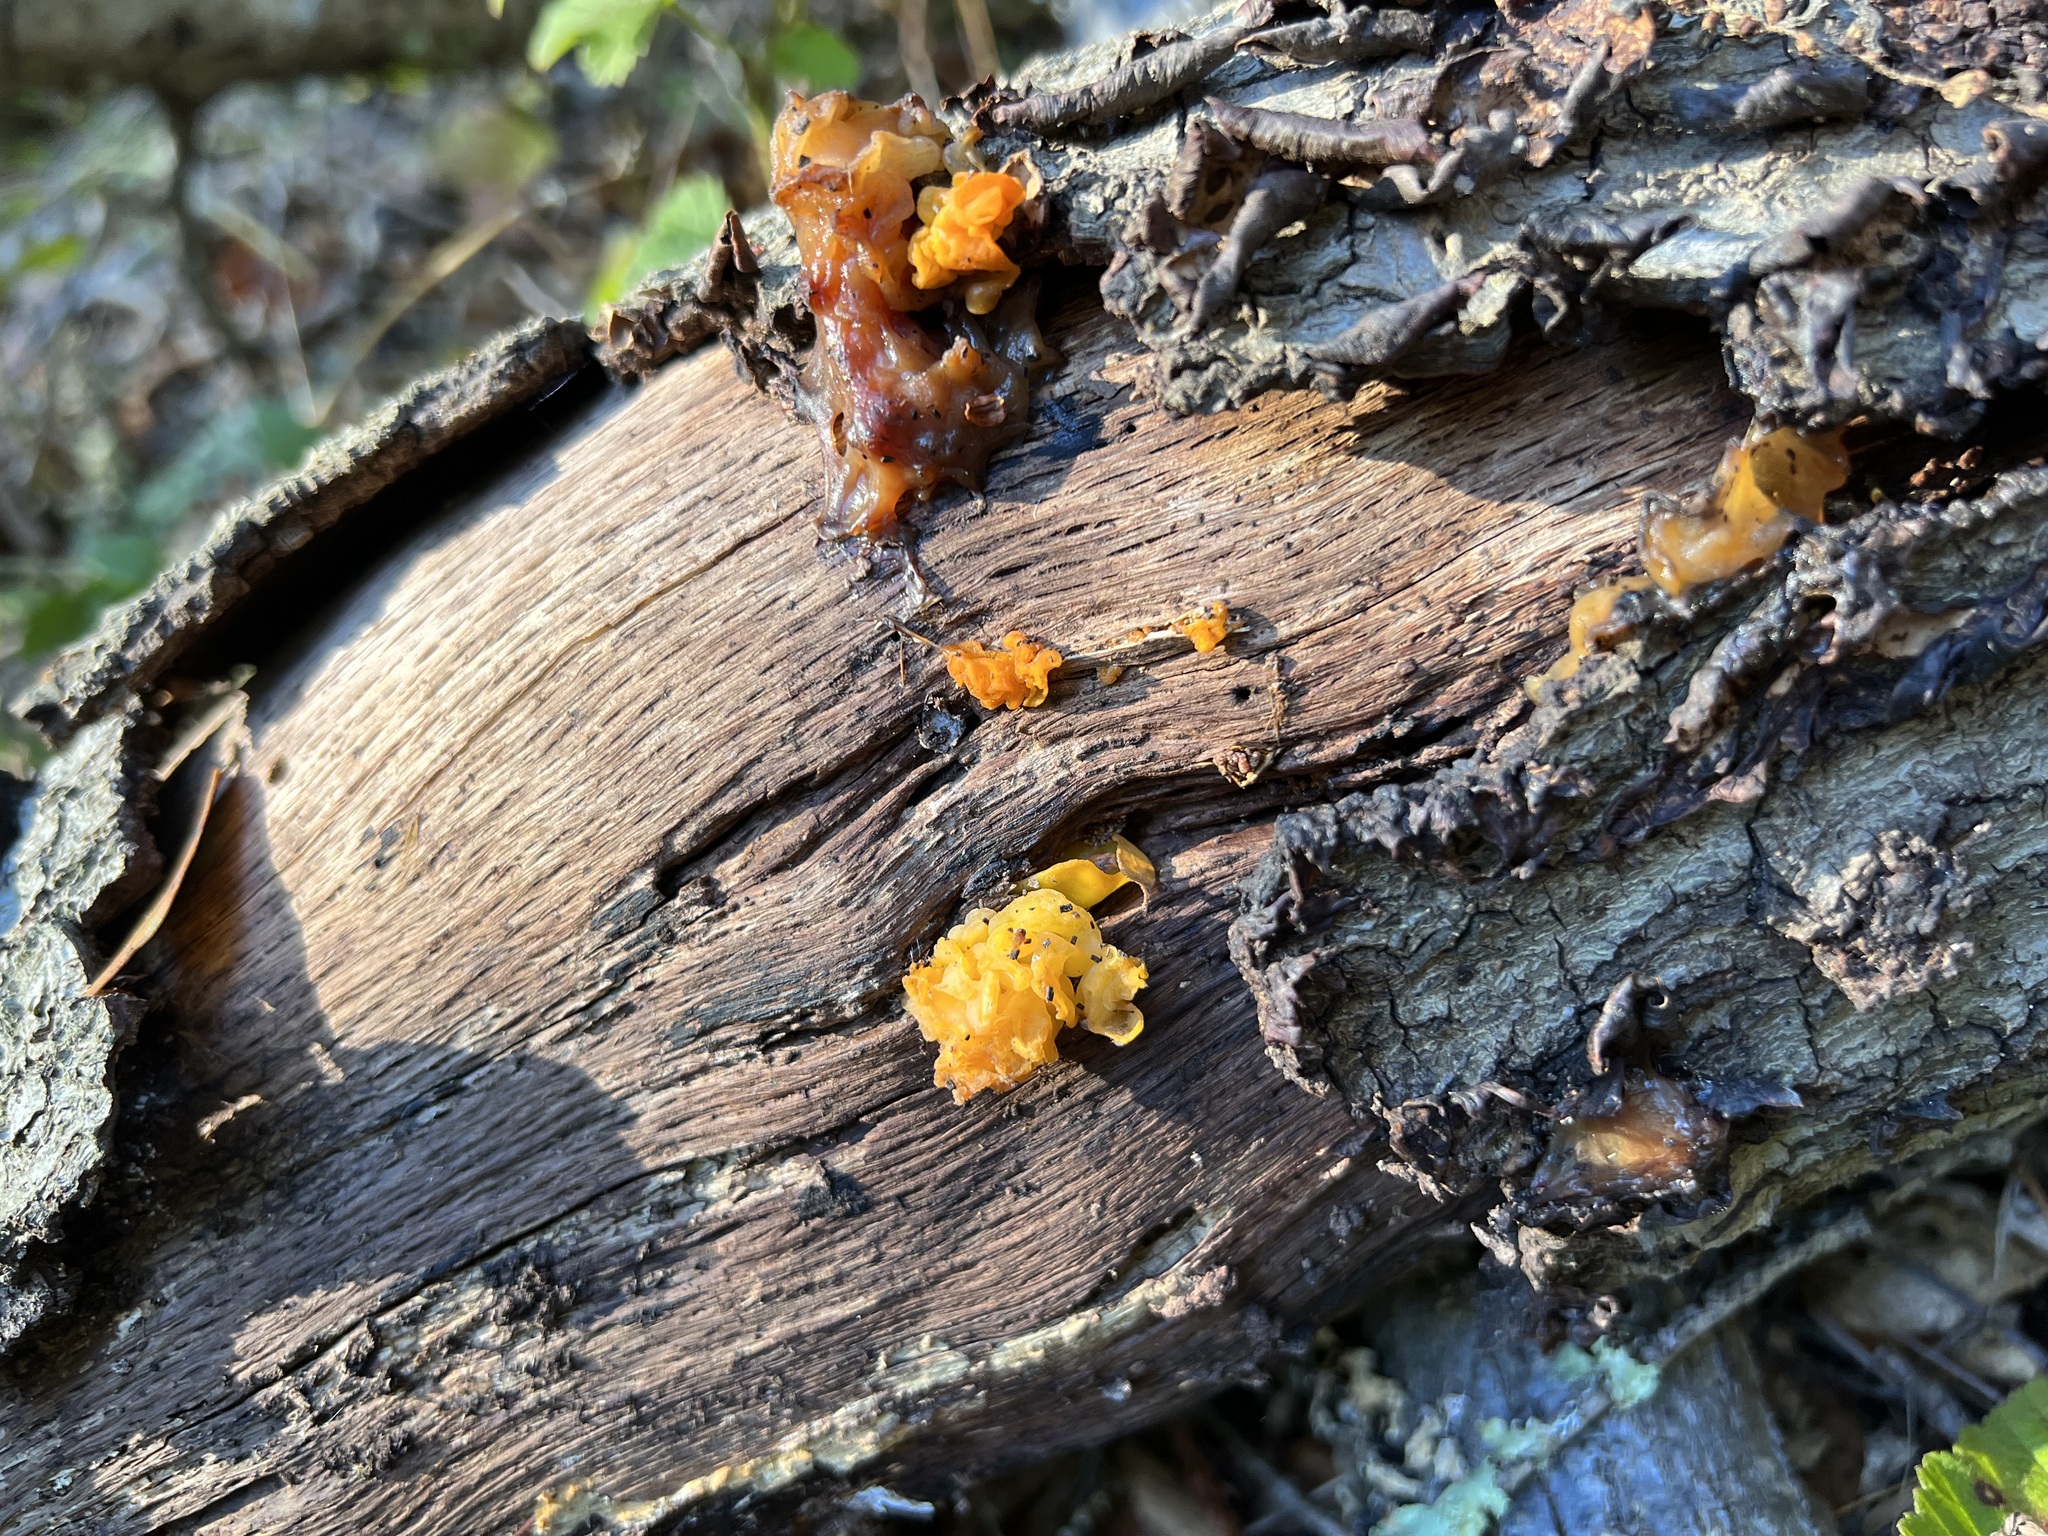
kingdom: Fungi
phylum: Basidiomycota
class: Dacrymycetes
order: Dacrymycetales
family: Dacrymycetaceae
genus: Dacrymyces
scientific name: Dacrymyces chrysospermus
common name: Orange jelly spot
